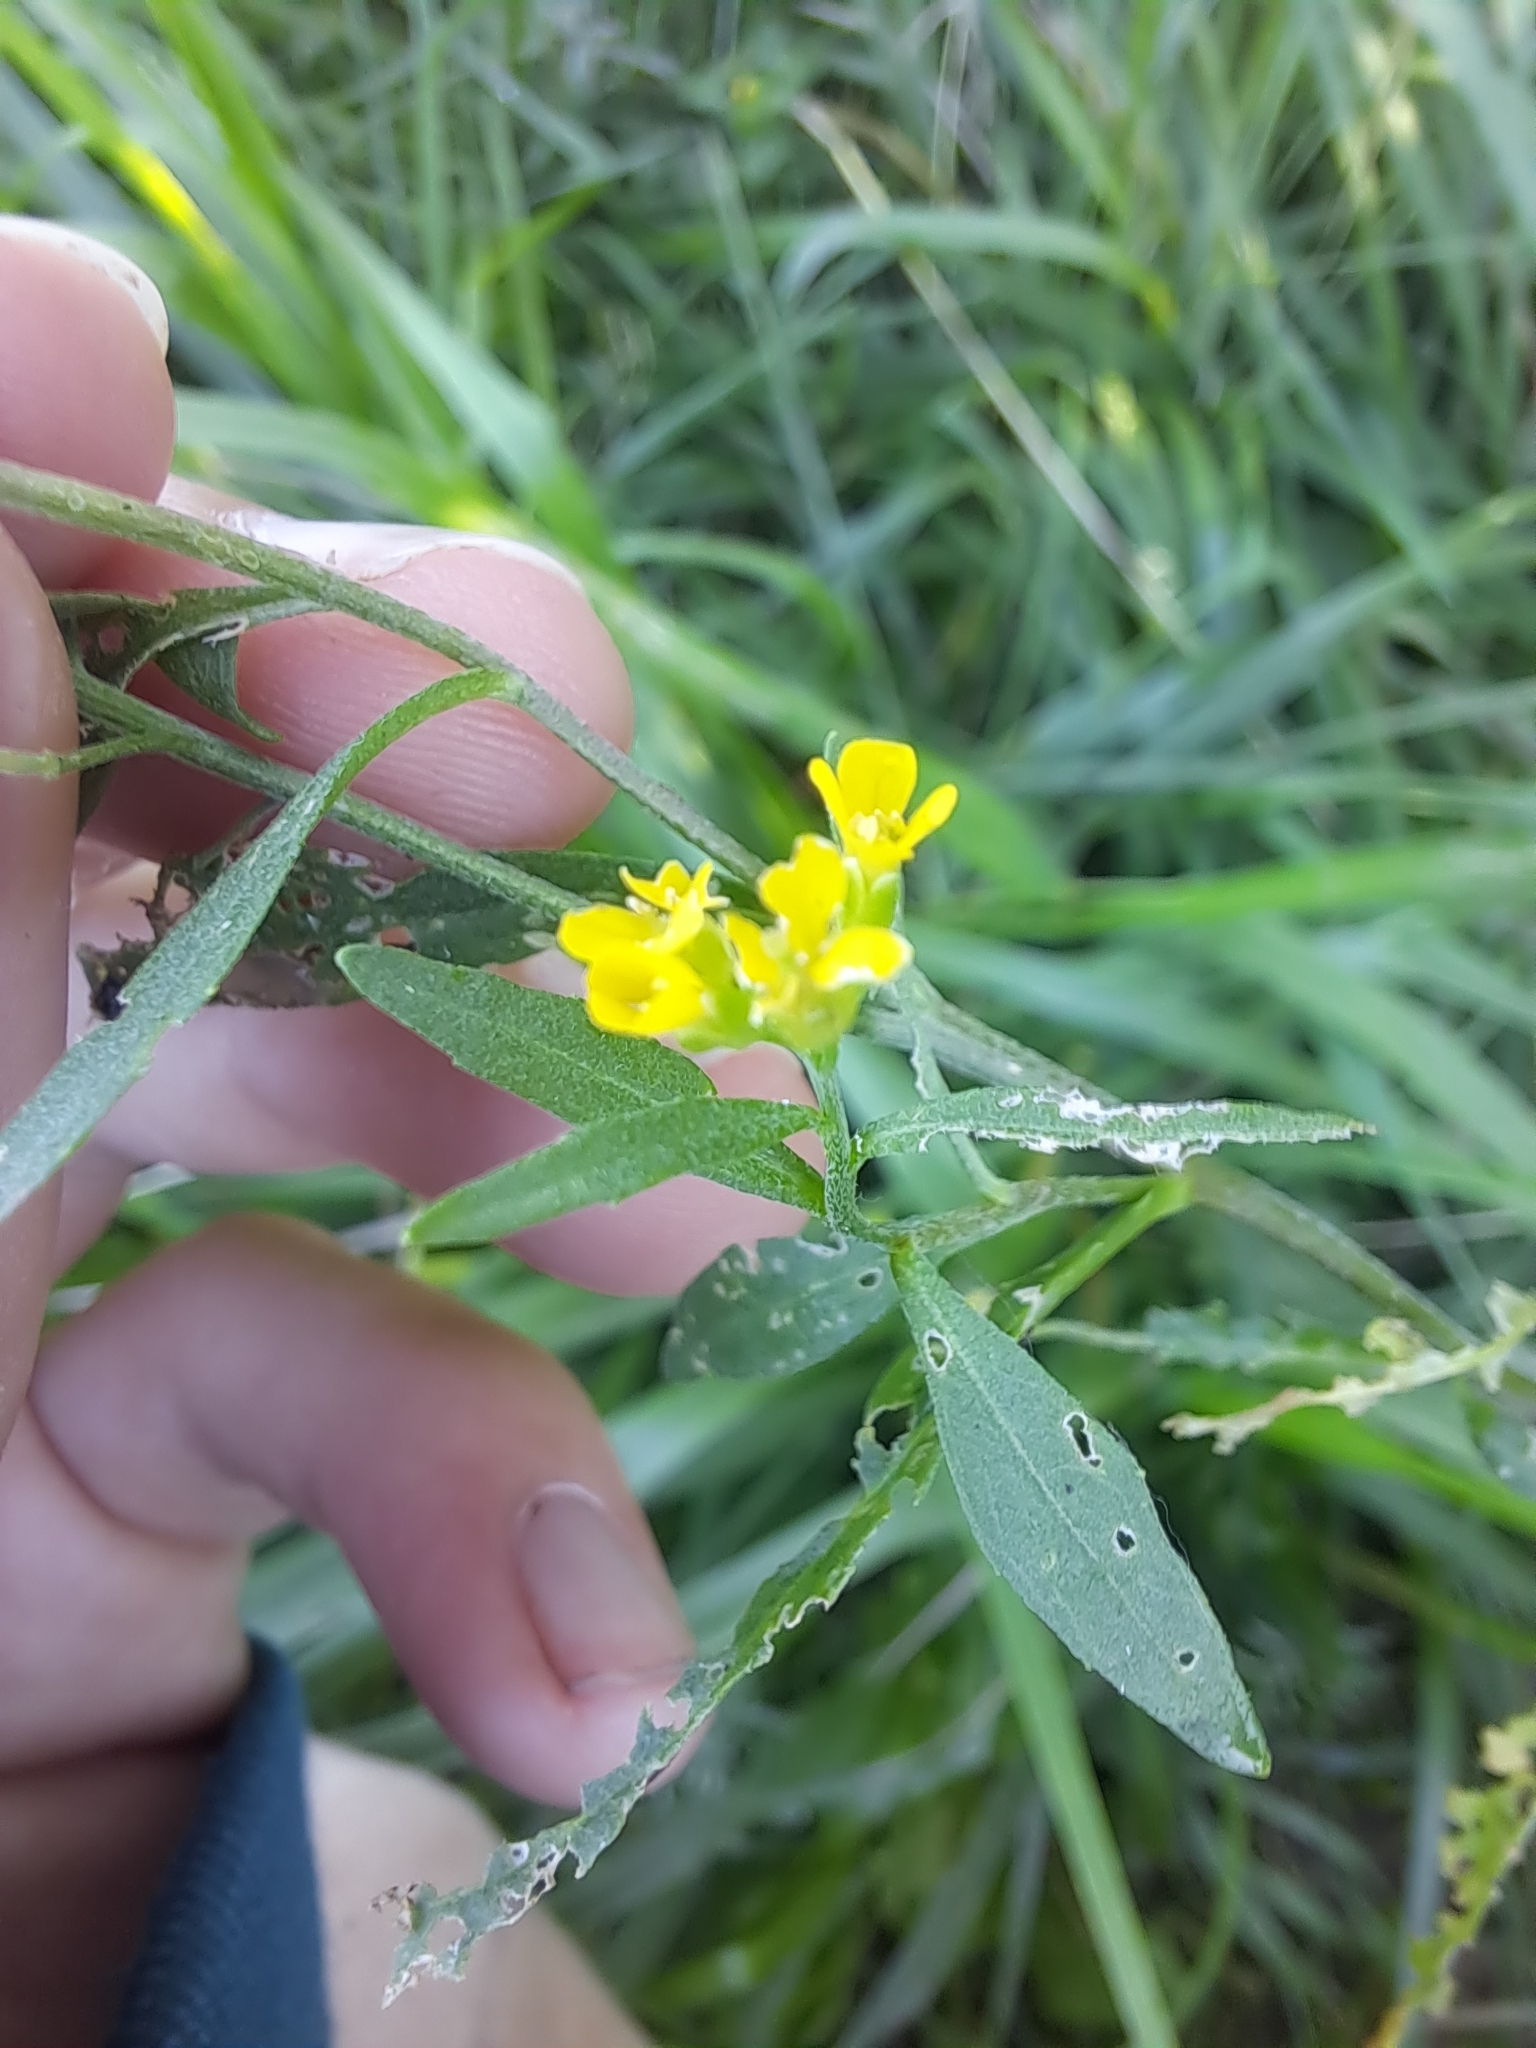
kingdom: Plantae
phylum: Tracheophyta
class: Magnoliopsida
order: Brassicales
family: Brassicaceae
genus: Erysimum
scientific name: Erysimum cheiranthoides
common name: Treacle mustard
